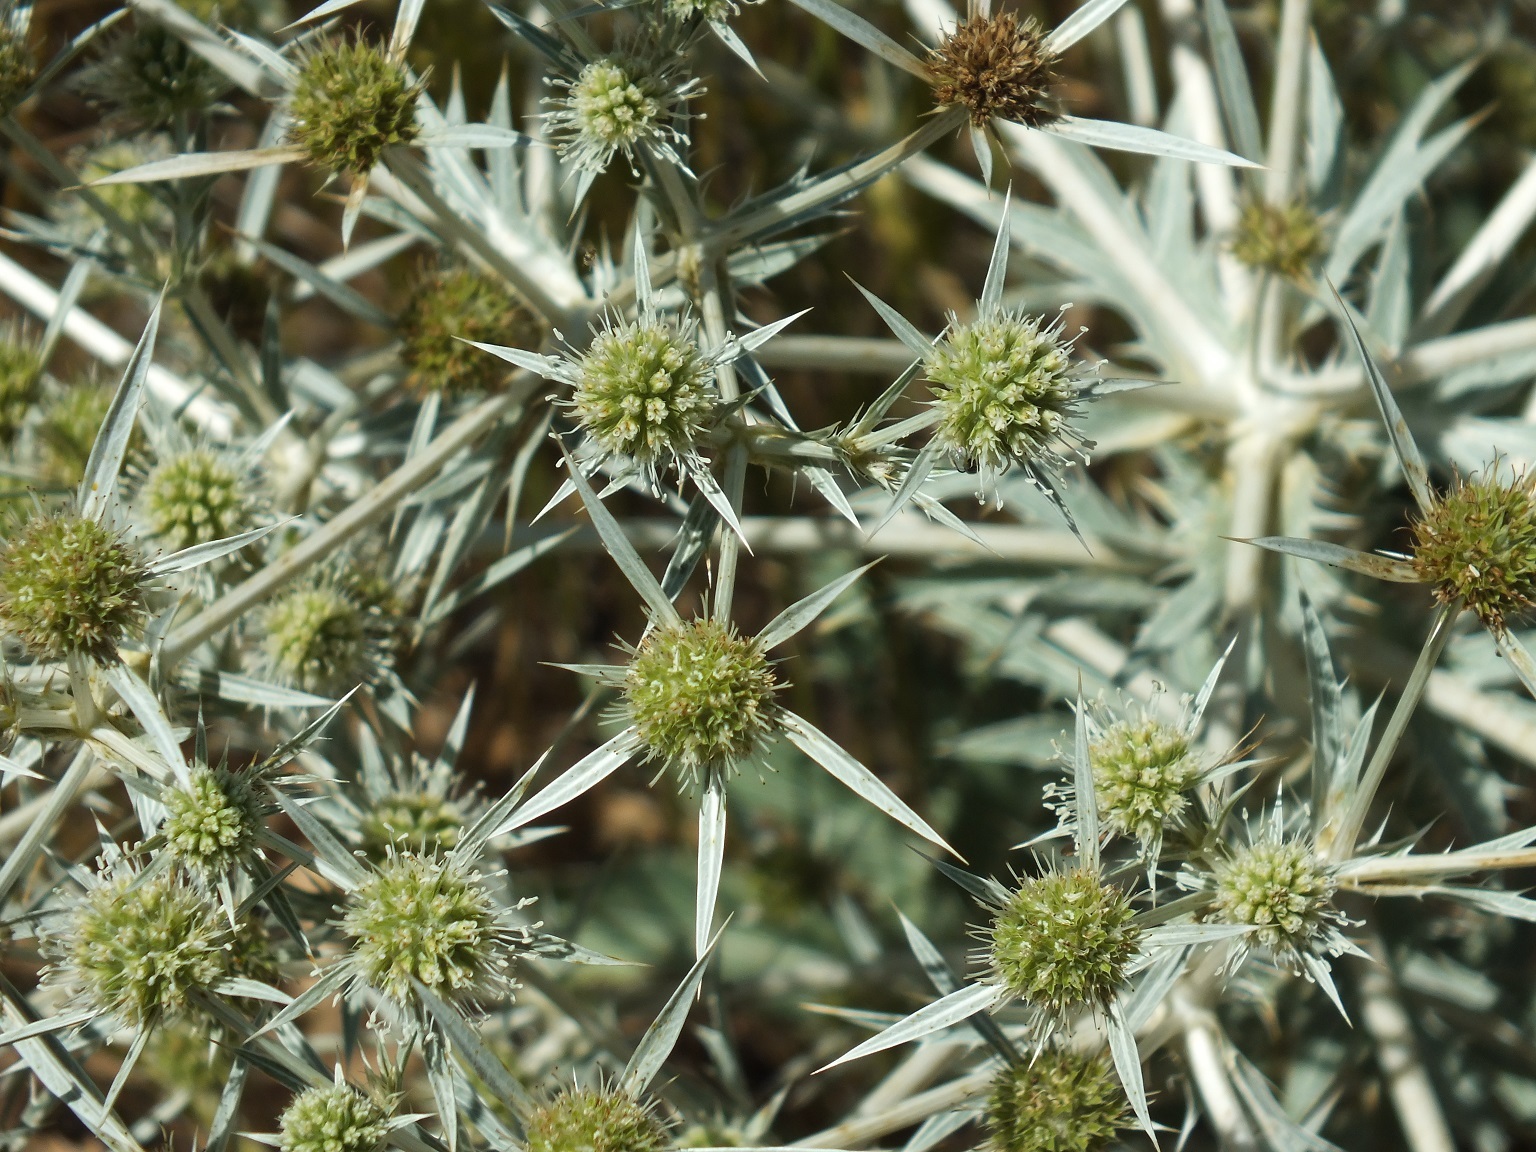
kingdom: Plantae
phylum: Tracheophyta
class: Magnoliopsida
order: Apiales
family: Apiaceae
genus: Eryngium
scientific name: Eryngium campestre
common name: Field eryngo
